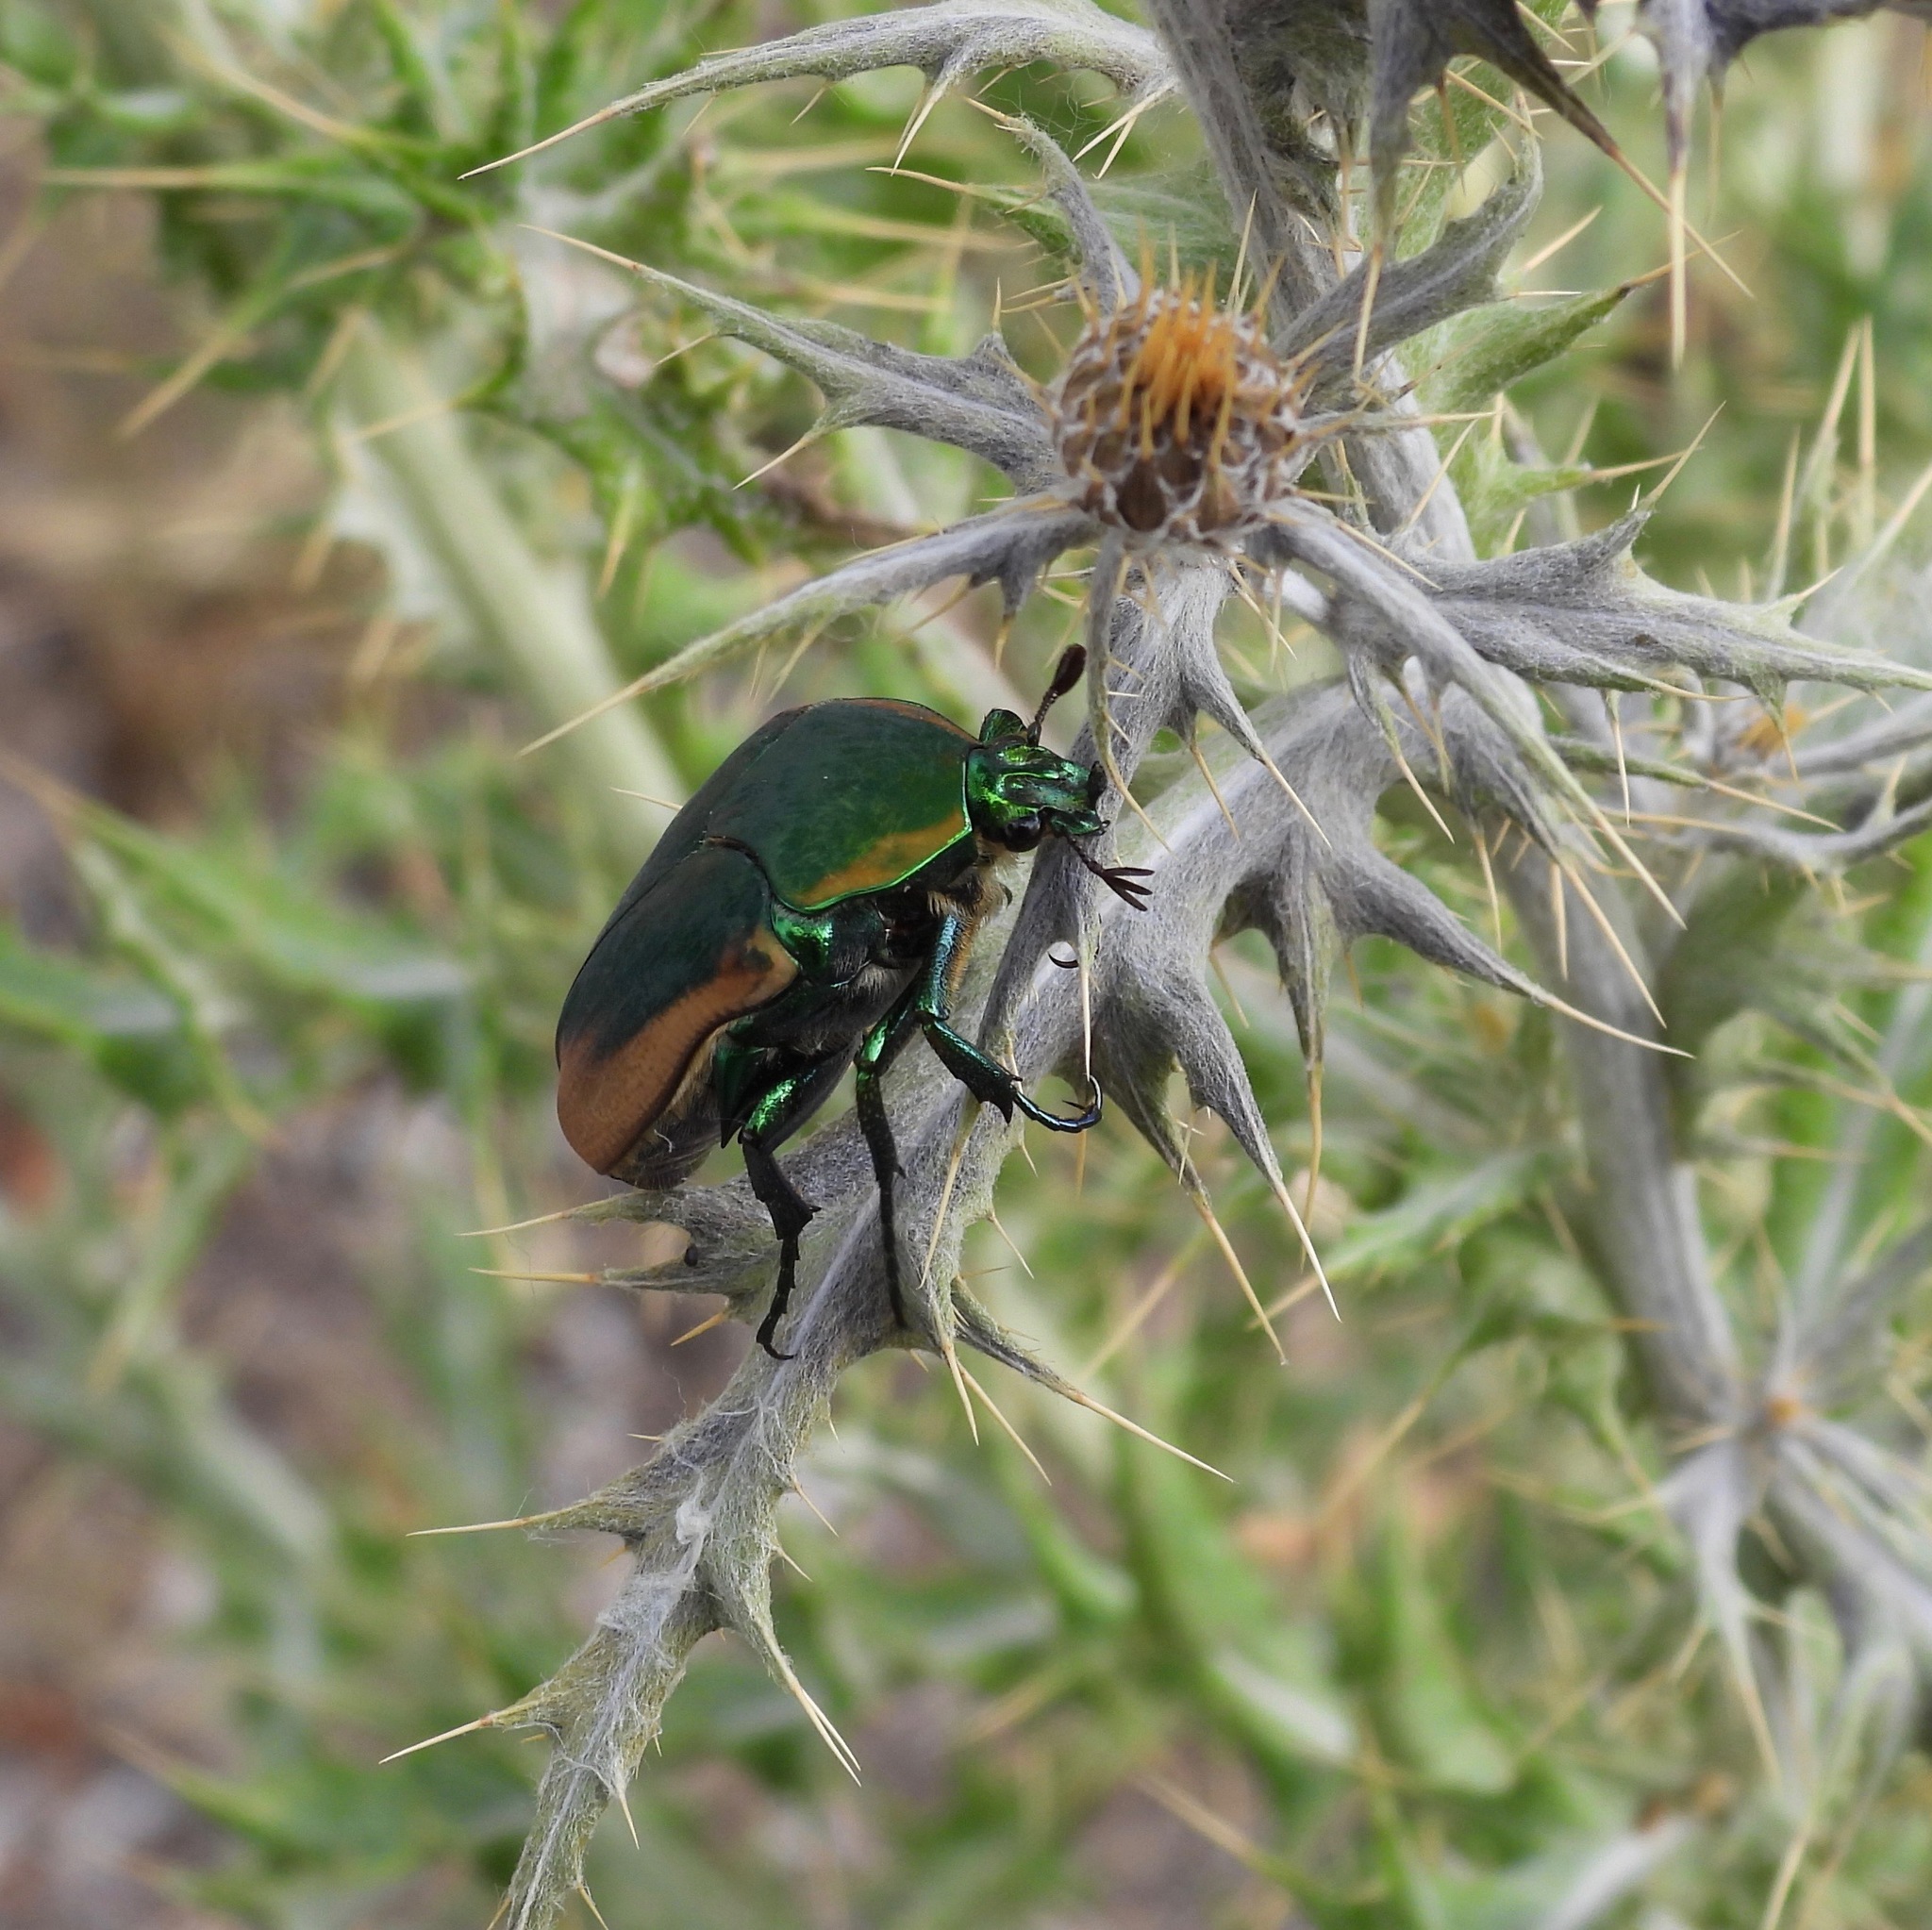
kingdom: Animalia
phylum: Arthropoda
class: Insecta
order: Coleoptera
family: Scarabaeidae
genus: Cotinis
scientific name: Cotinis mutabilis
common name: Figeater beetle
